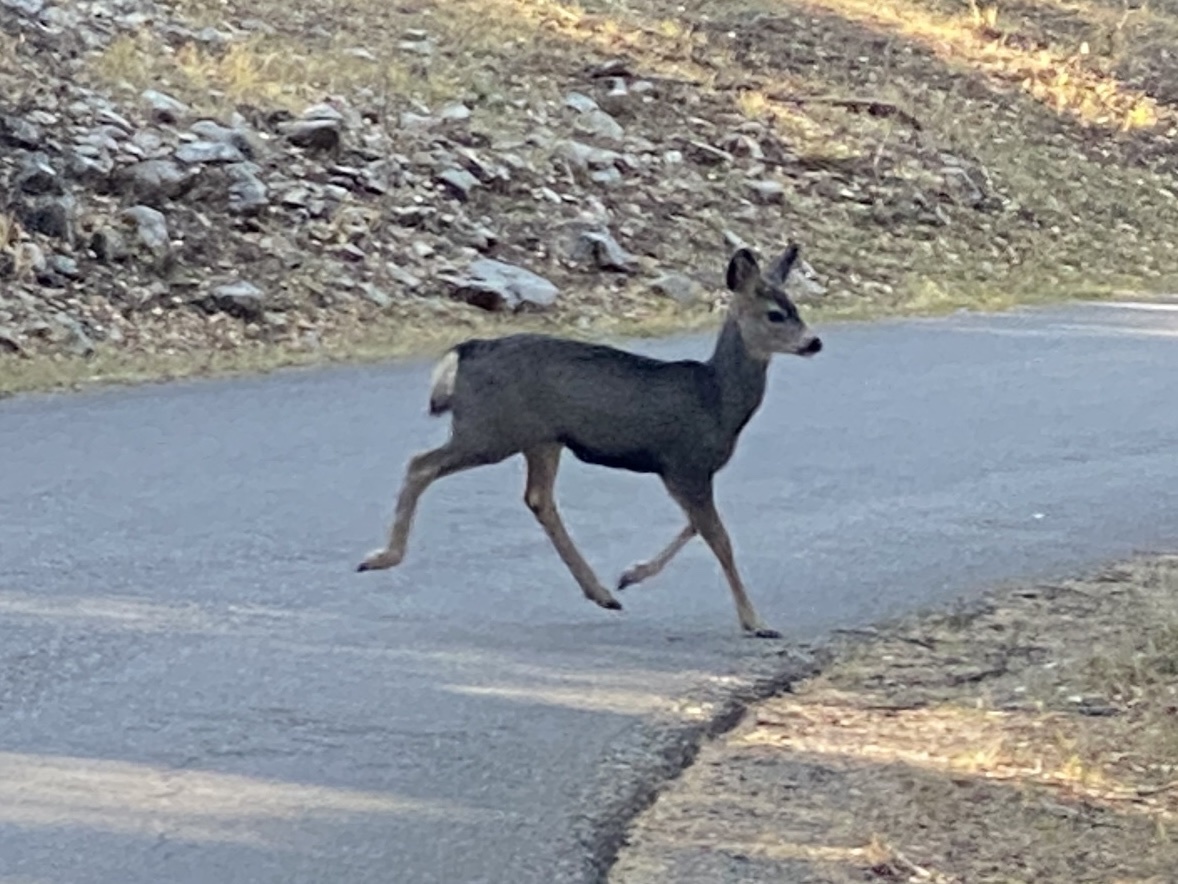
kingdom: Animalia
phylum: Chordata
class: Mammalia
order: Artiodactyla
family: Cervidae
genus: Odocoileus
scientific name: Odocoileus hemionus
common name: Mule deer
